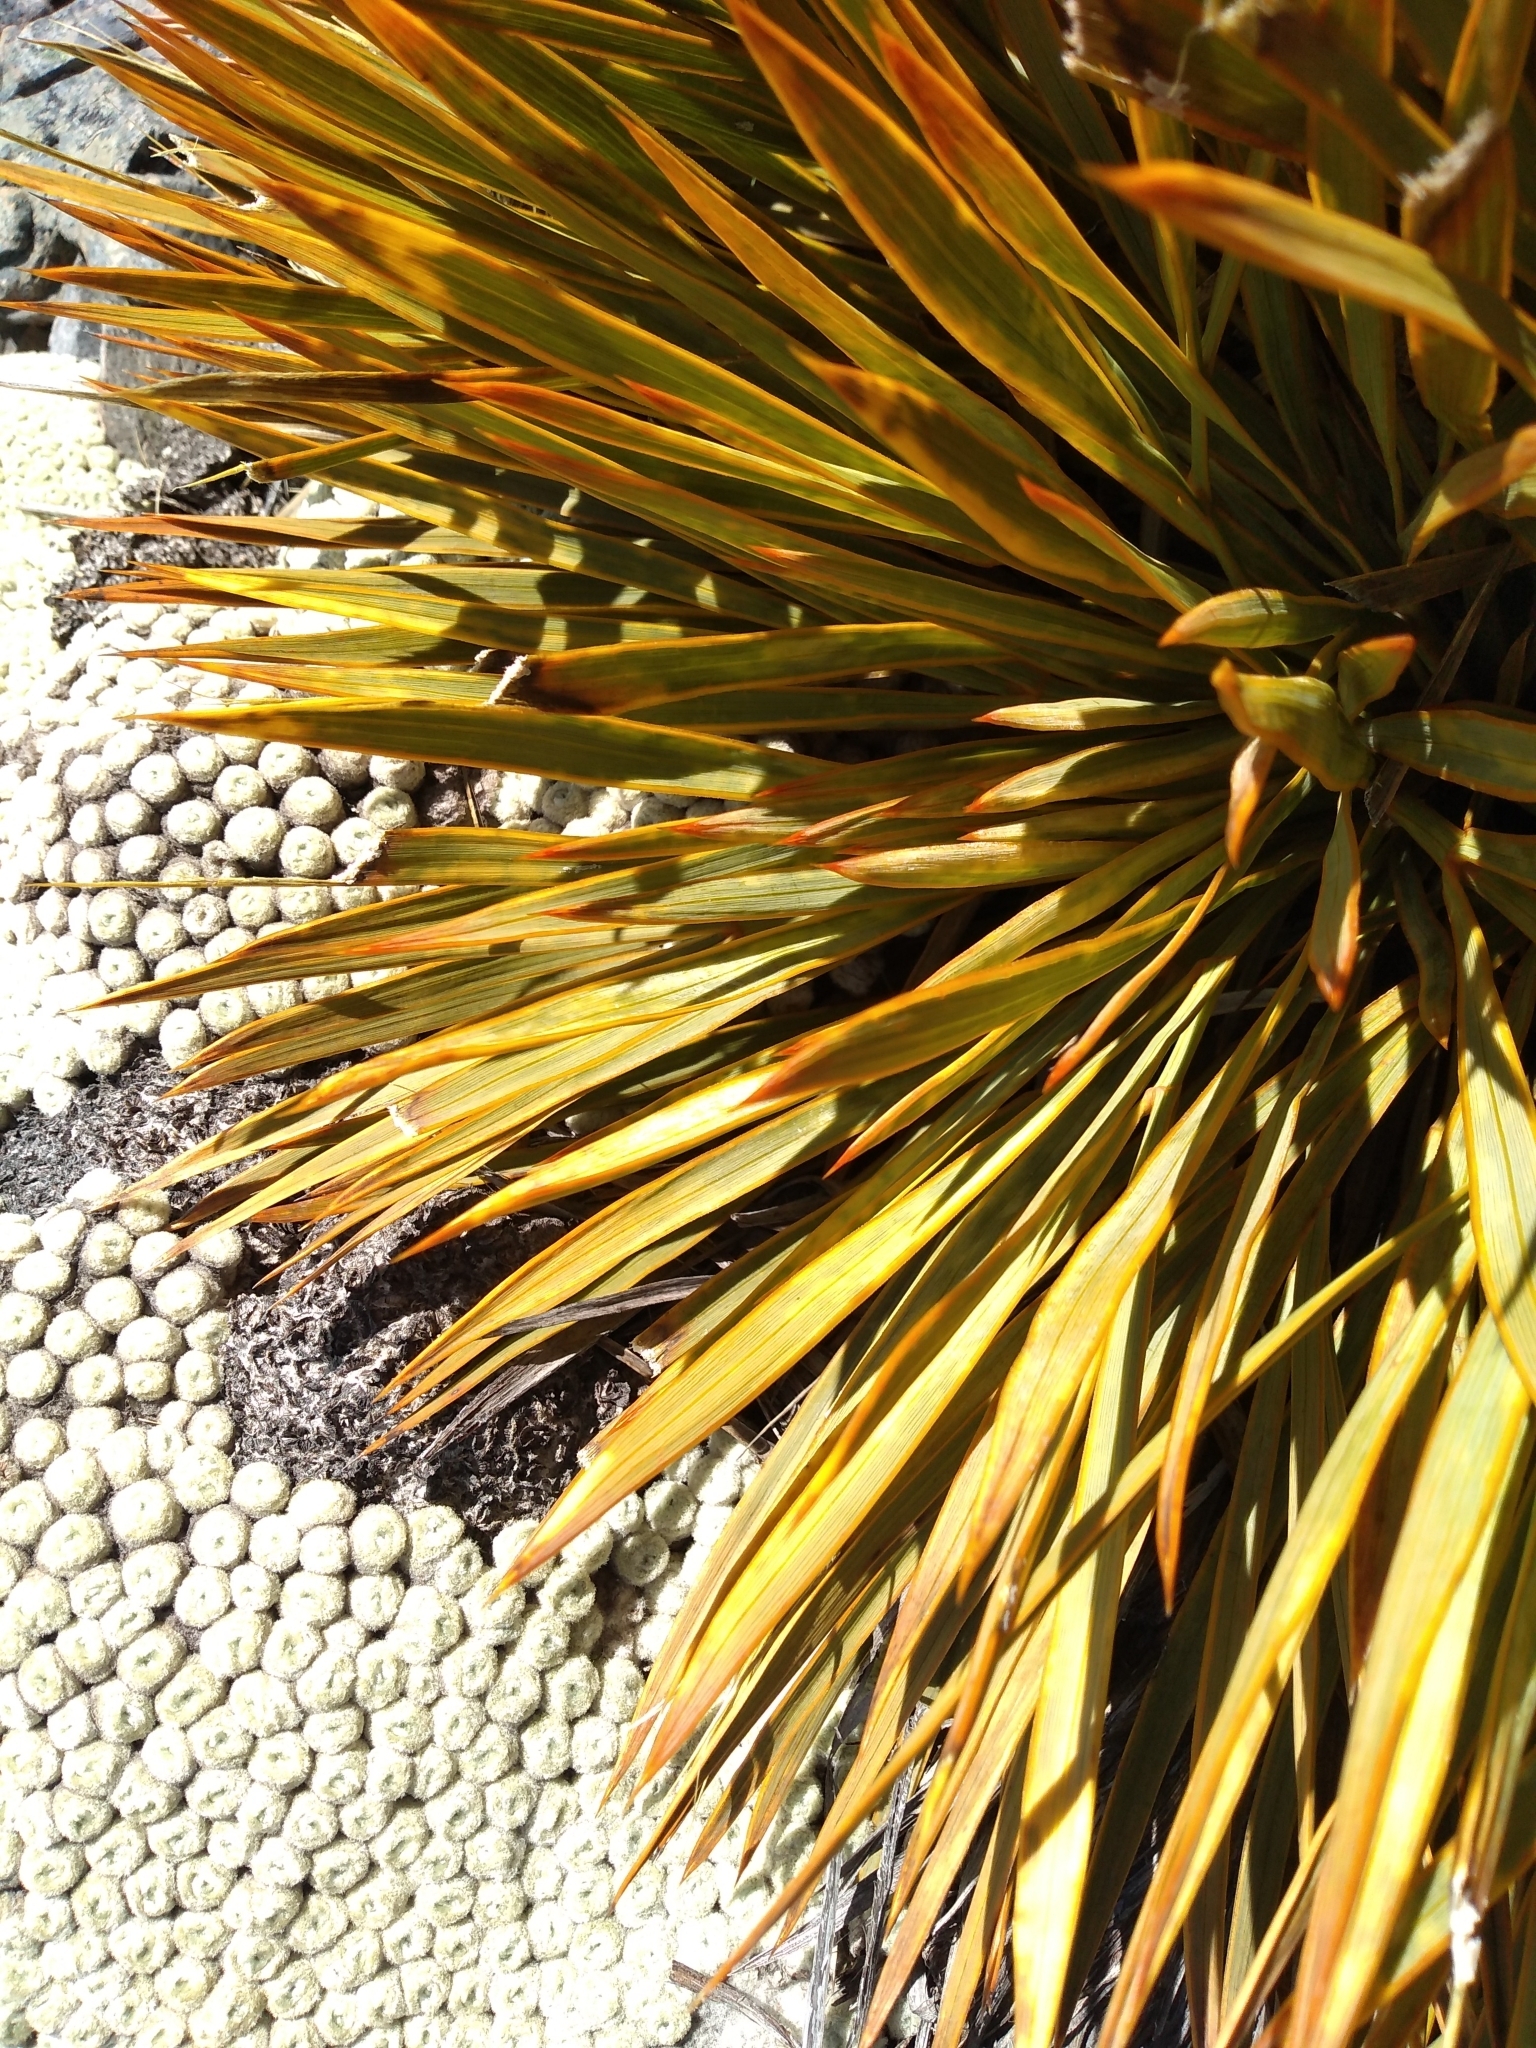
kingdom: Plantae
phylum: Tracheophyta
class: Magnoliopsida
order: Apiales
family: Apiaceae
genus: Aciphylla
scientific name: Aciphylla aurea
